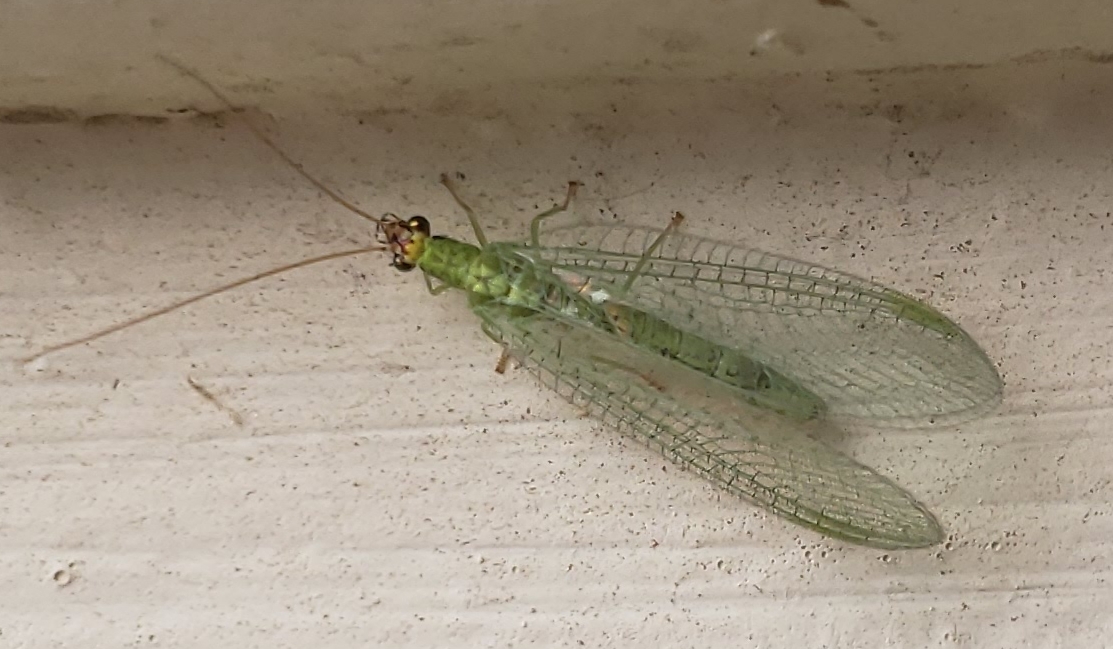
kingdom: Animalia
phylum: Arthropoda
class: Insecta
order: Neuroptera
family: Chrysopidae
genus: Chrysopa
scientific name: Chrysopa oculata
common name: Golden-eyed lacewing
